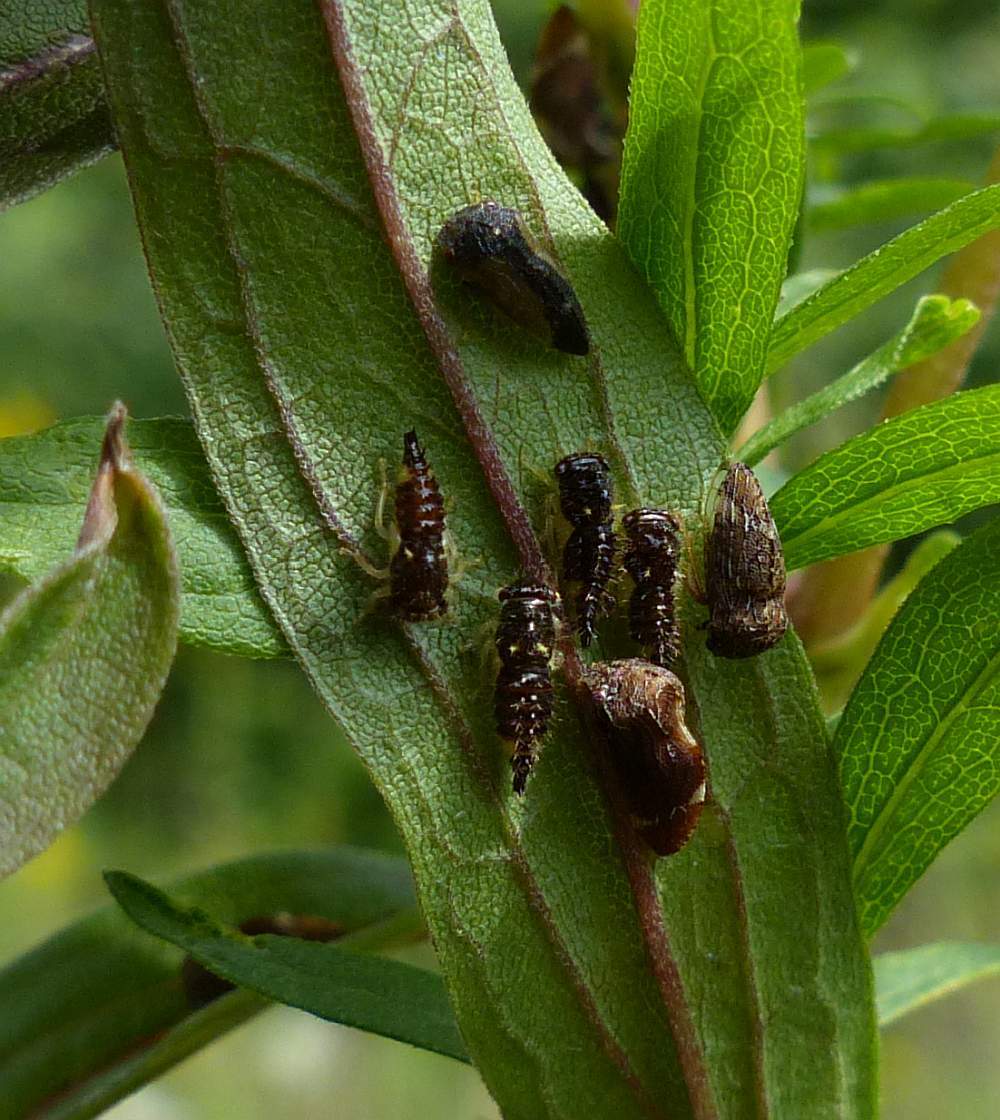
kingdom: Animalia
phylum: Arthropoda
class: Insecta
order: Hemiptera
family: Membracidae
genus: Publilia
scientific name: Publilia concava
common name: Aster treehopper
